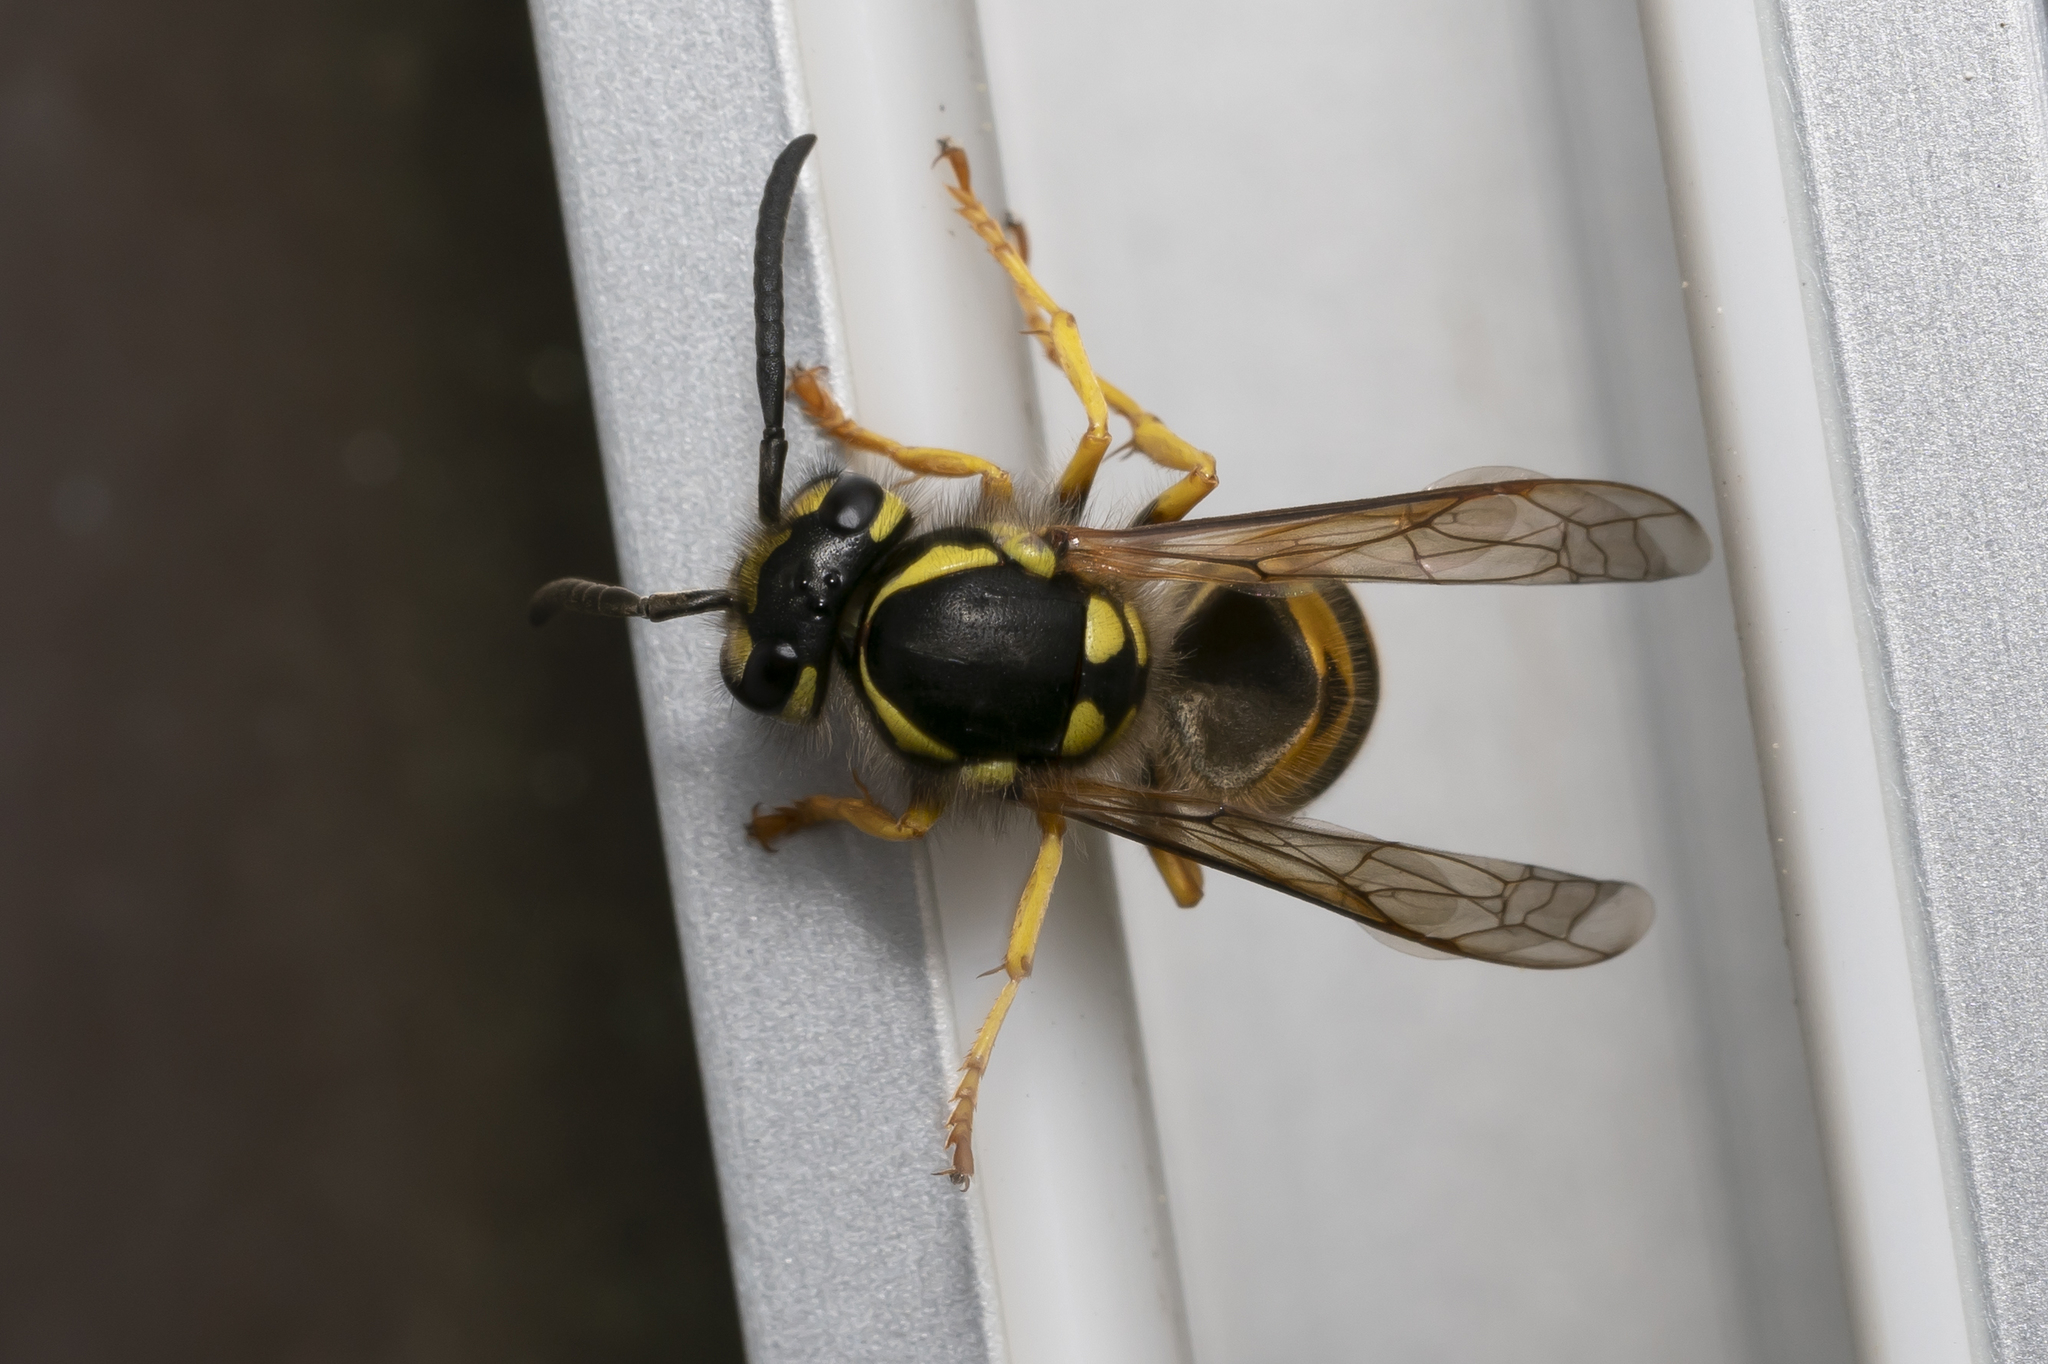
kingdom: Animalia
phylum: Arthropoda
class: Insecta
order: Hymenoptera
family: Vespidae
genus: Vespula
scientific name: Vespula germanica
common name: German wasp
